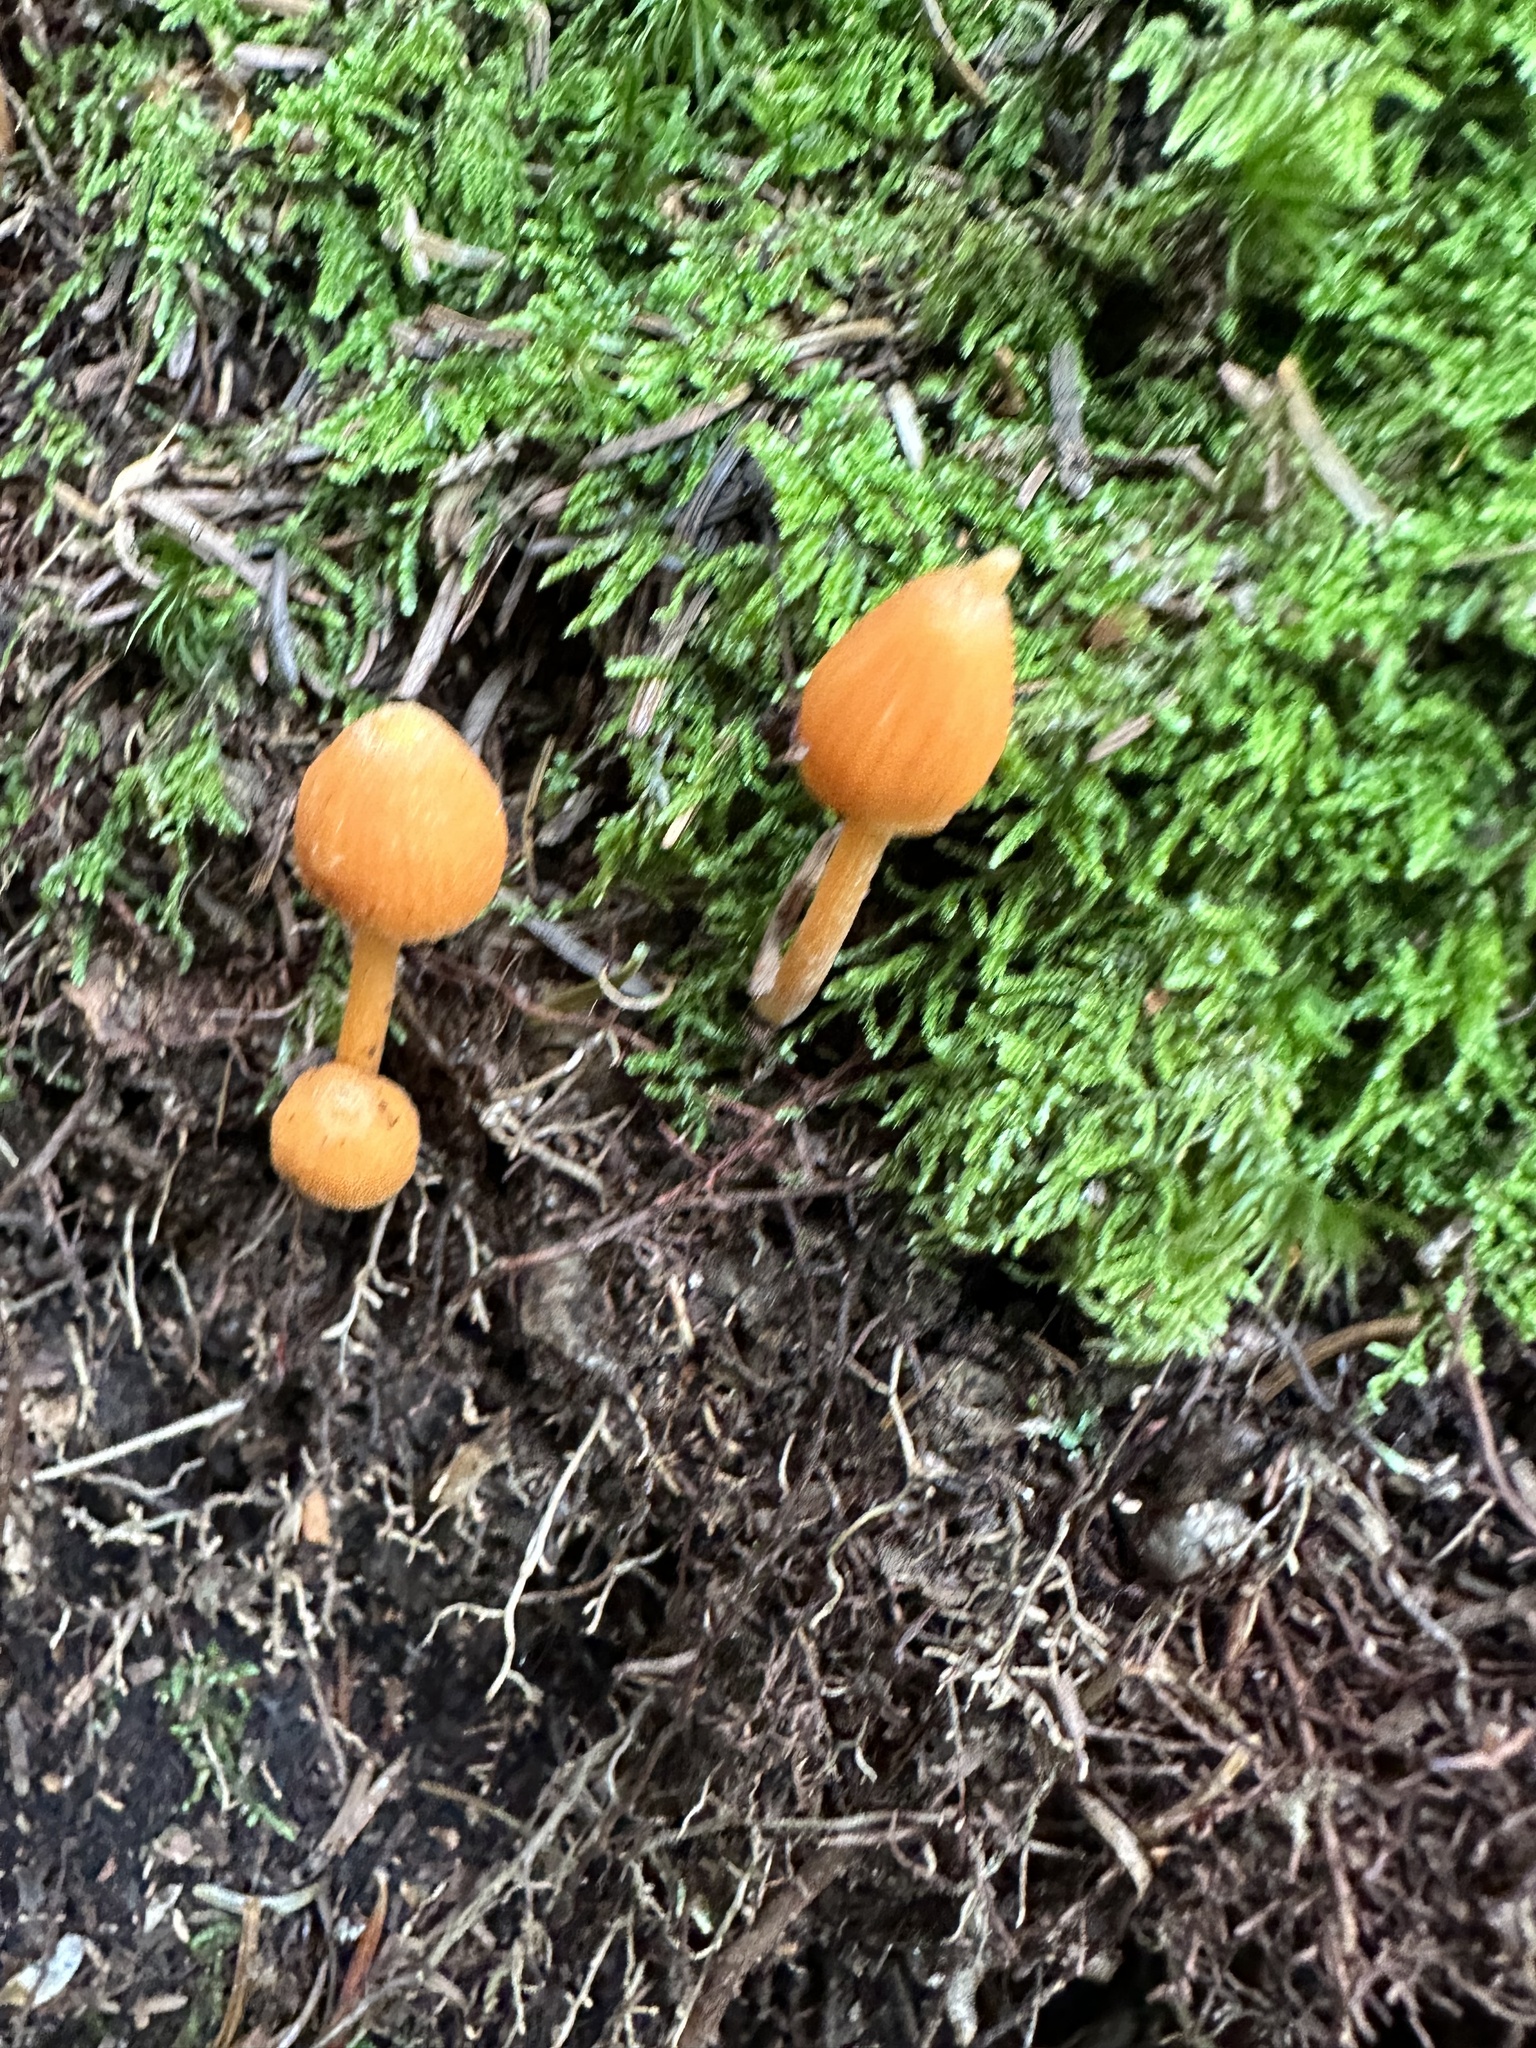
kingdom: Fungi
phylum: Basidiomycota
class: Agaricomycetes
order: Agaricales
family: Entolomataceae
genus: Entoloma
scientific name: Entoloma quadratum
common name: Salmon pinkgill
